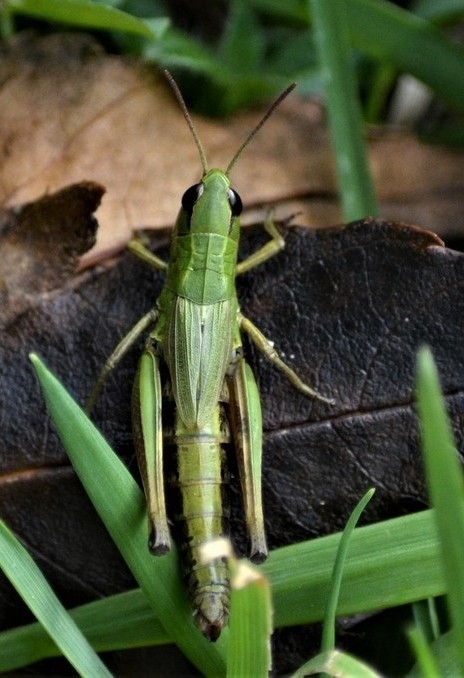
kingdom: Animalia
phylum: Arthropoda
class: Insecta
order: Orthoptera
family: Acrididae
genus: Pseudochorthippus
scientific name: Pseudochorthippus parallelus
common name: Meadow grasshopper
